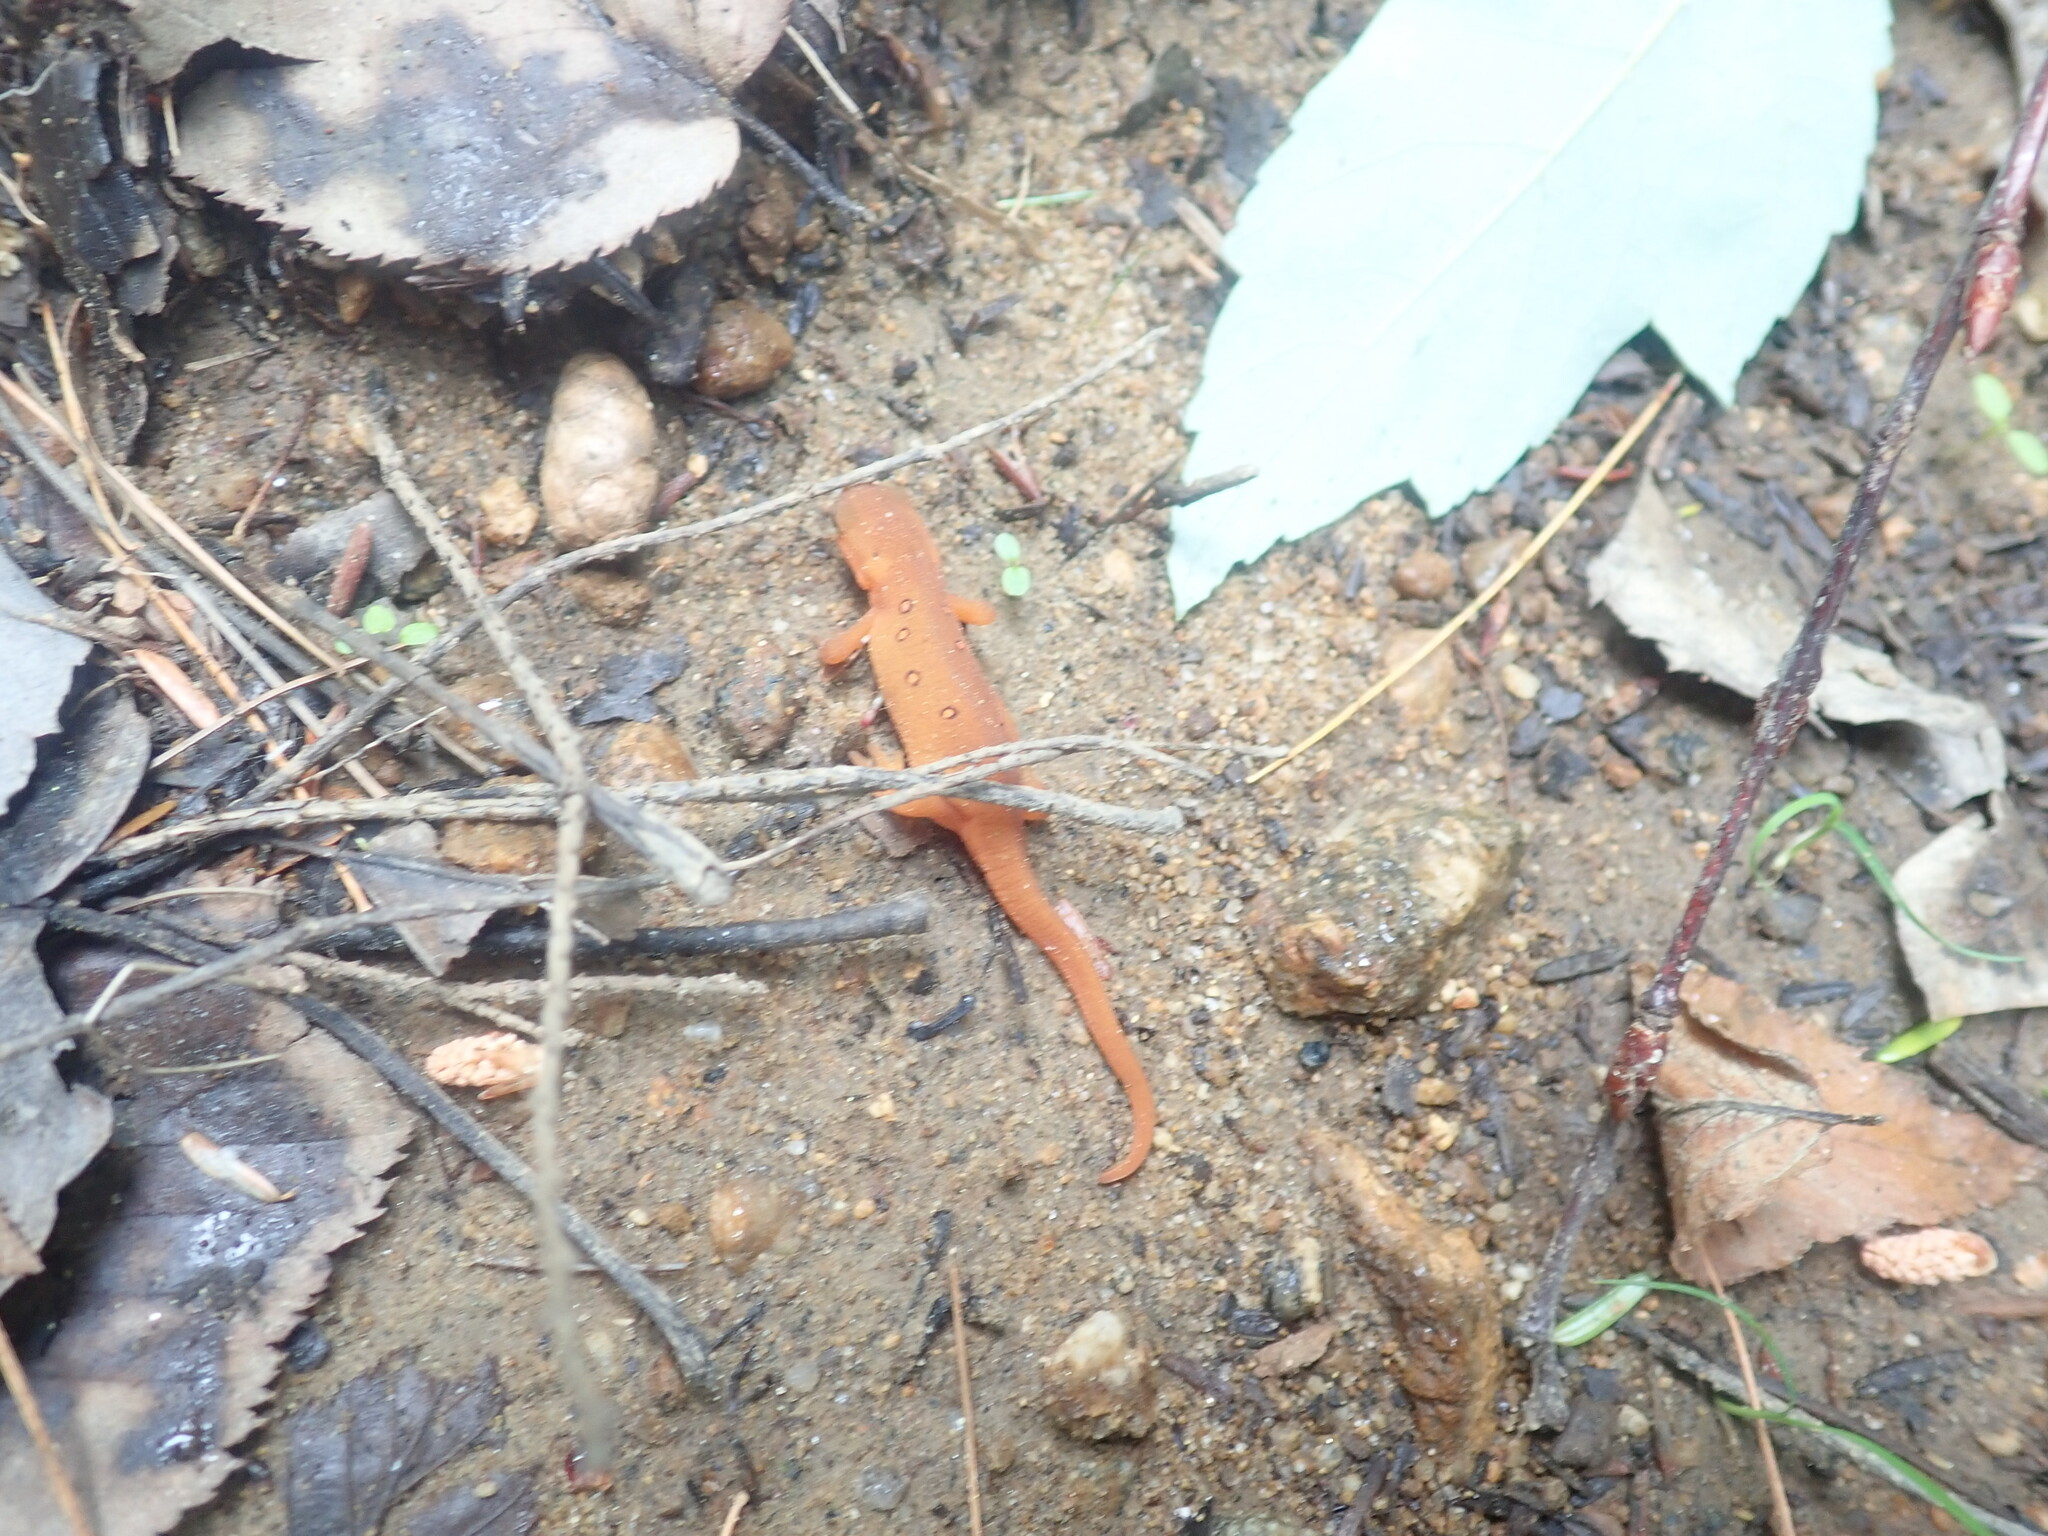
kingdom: Animalia
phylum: Chordata
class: Amphibia
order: Caudata
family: Salamandridae
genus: Notophthalmus
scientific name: Notophthalmus viridescens
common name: Eastern newt
